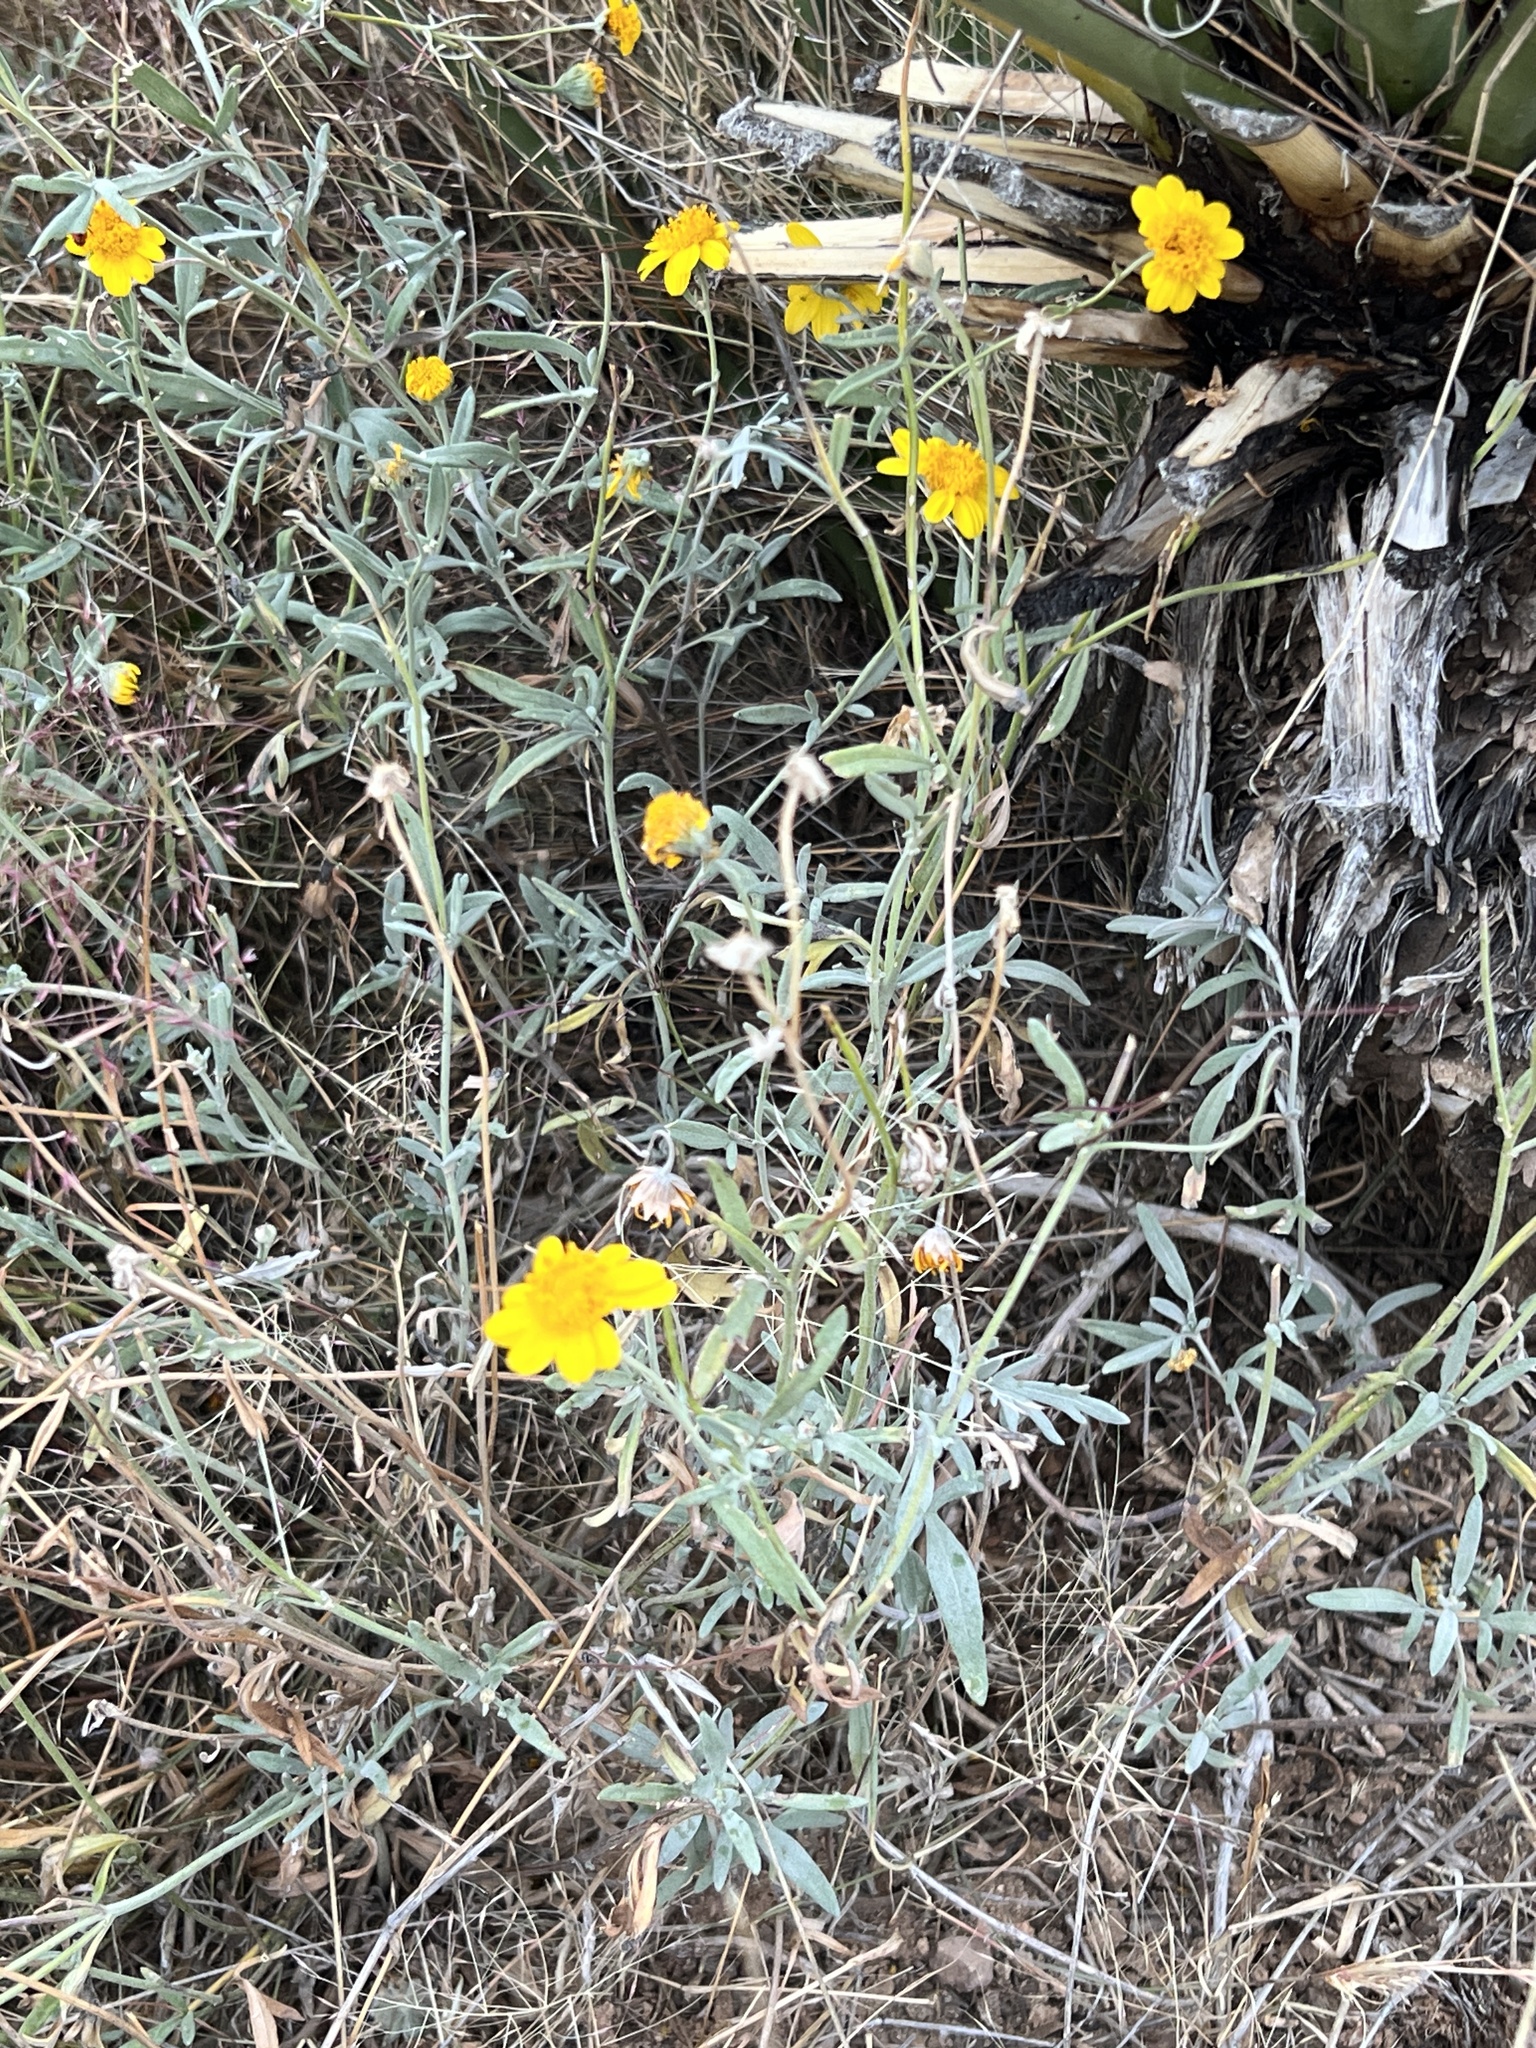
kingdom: Plantae
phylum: Tracheophyta
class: Magnoliopsida
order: Asterales
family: Asteraceae
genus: Picradeniopsis
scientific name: Picradeniopsis absinthifolia
